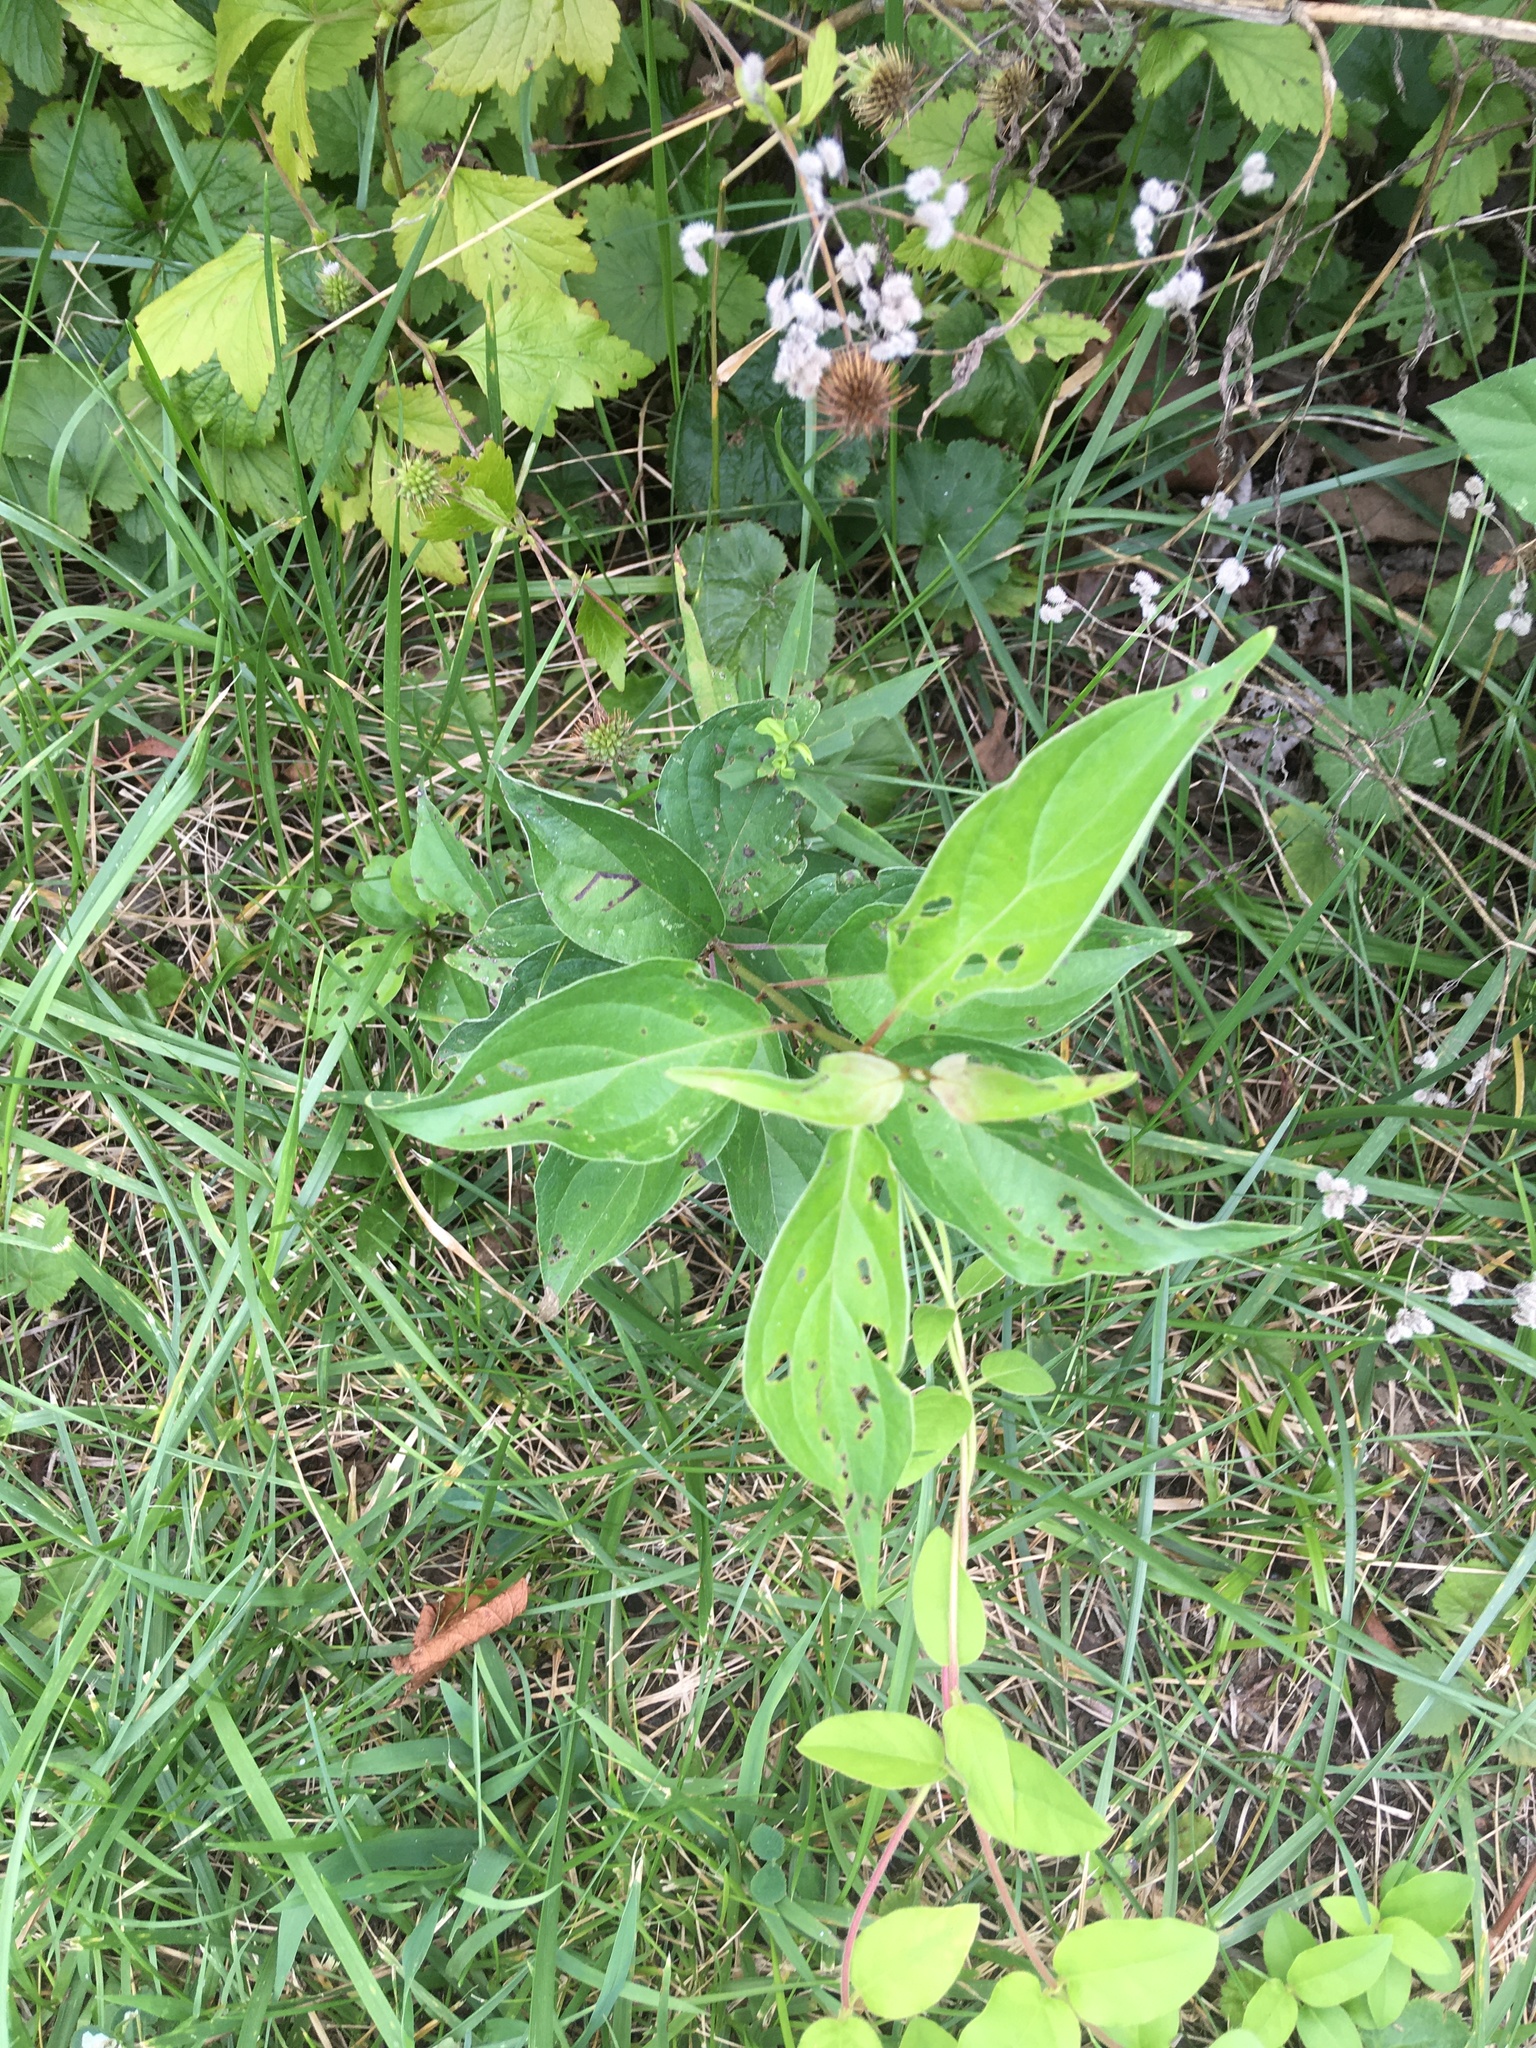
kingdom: Plantae
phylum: Tracheophyta
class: Magnoliopsida
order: Cornales
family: Cornaceae
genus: Cornus
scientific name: Cornus drummondii
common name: Rough-leaf dogwood
